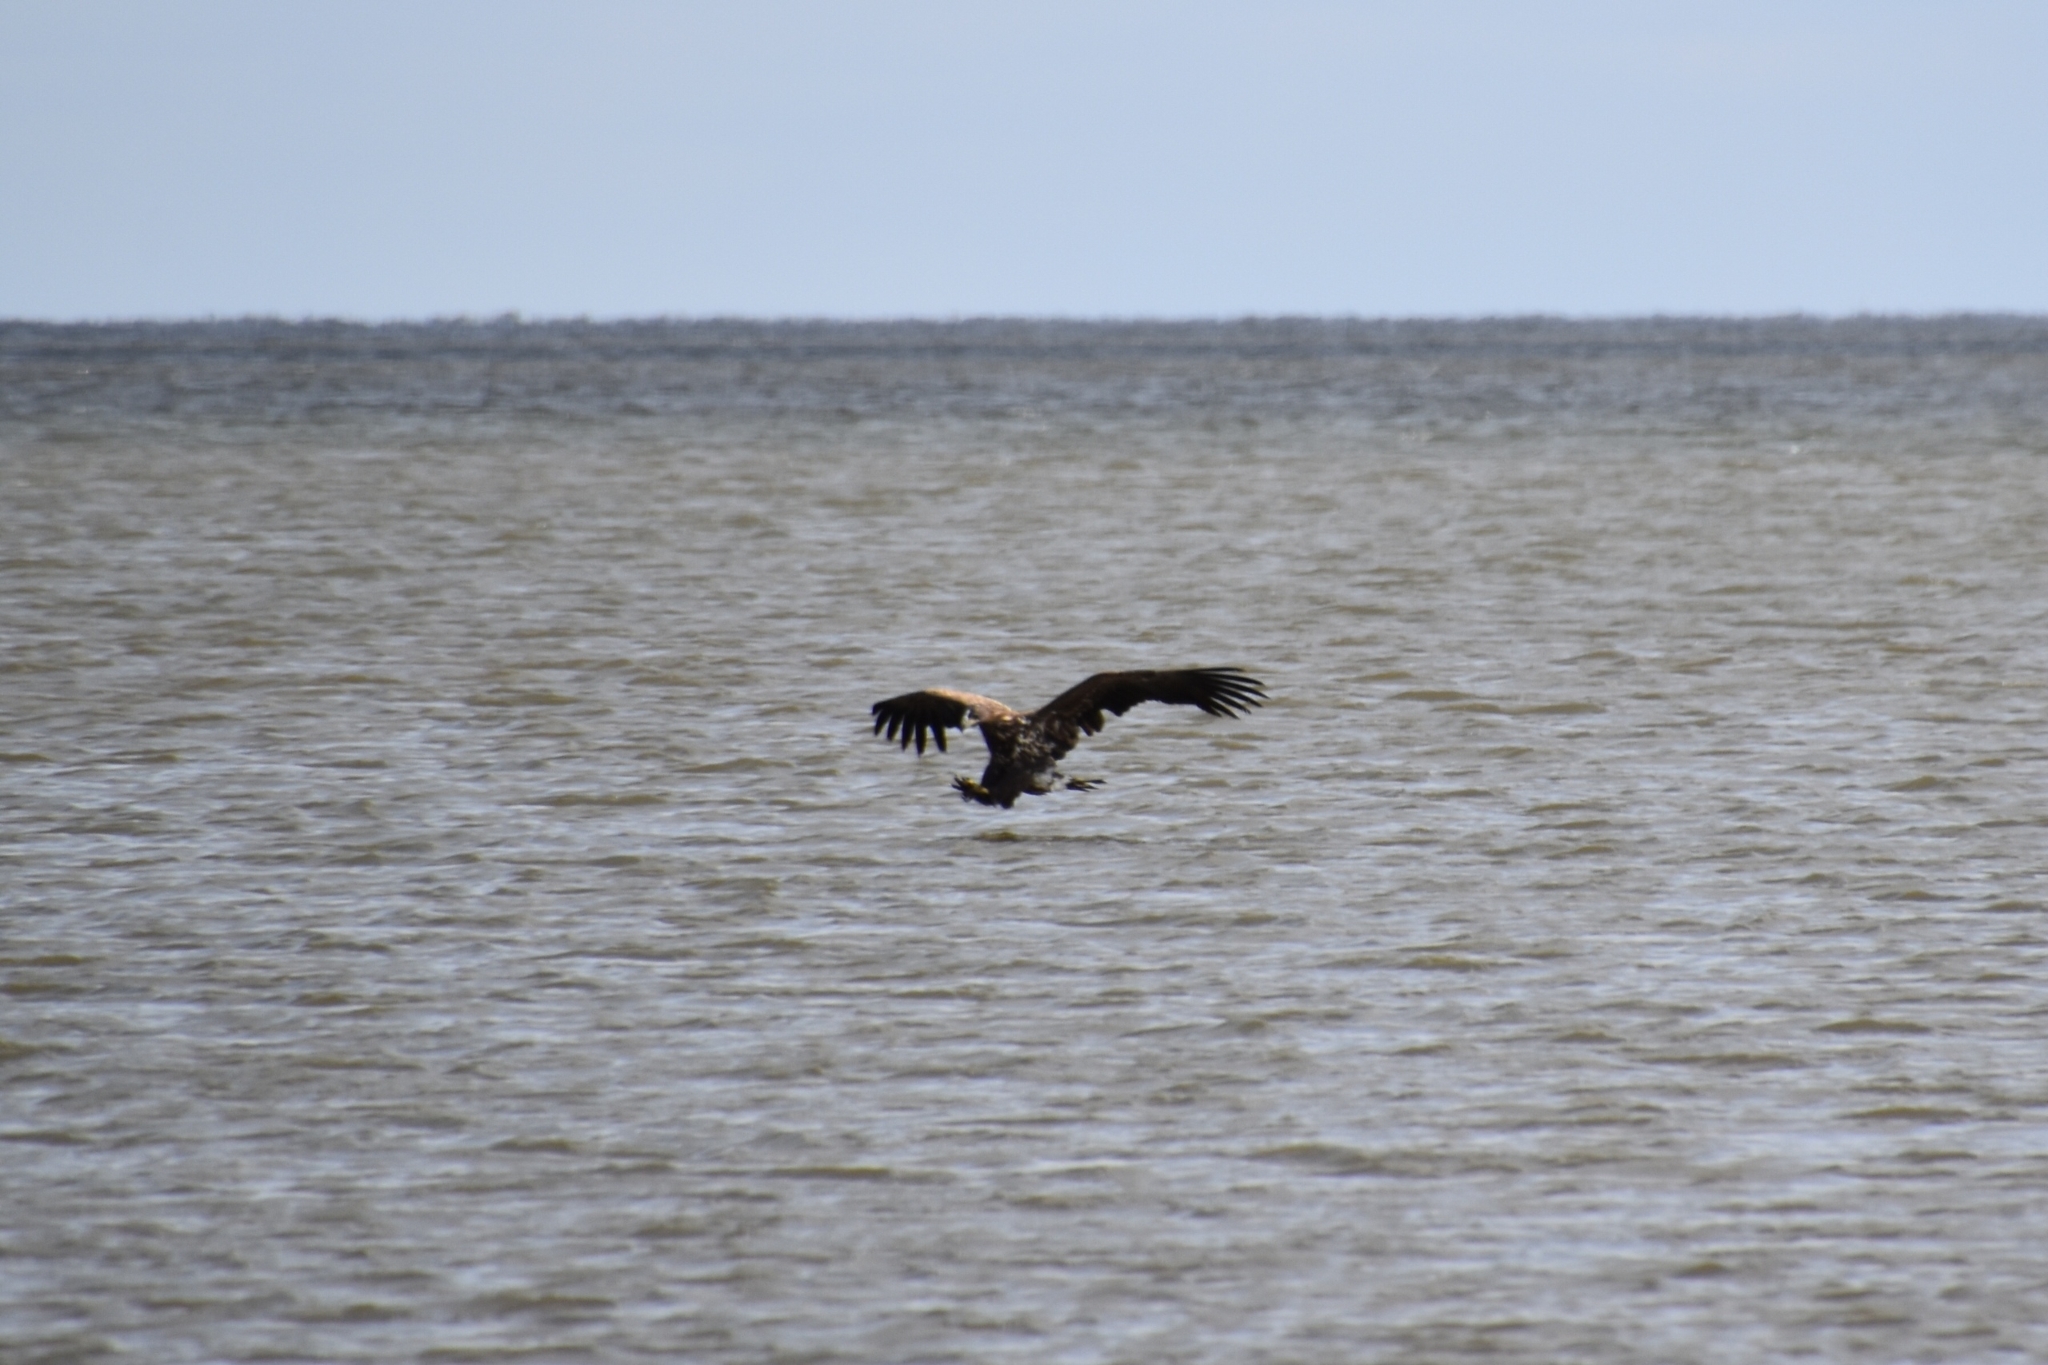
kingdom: Animalia
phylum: Chordata
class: Aves
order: Accipitriformes
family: Accipitridae
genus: Haliaeetus
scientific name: Haliaeetus albicilla
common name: White-tailed eagle
